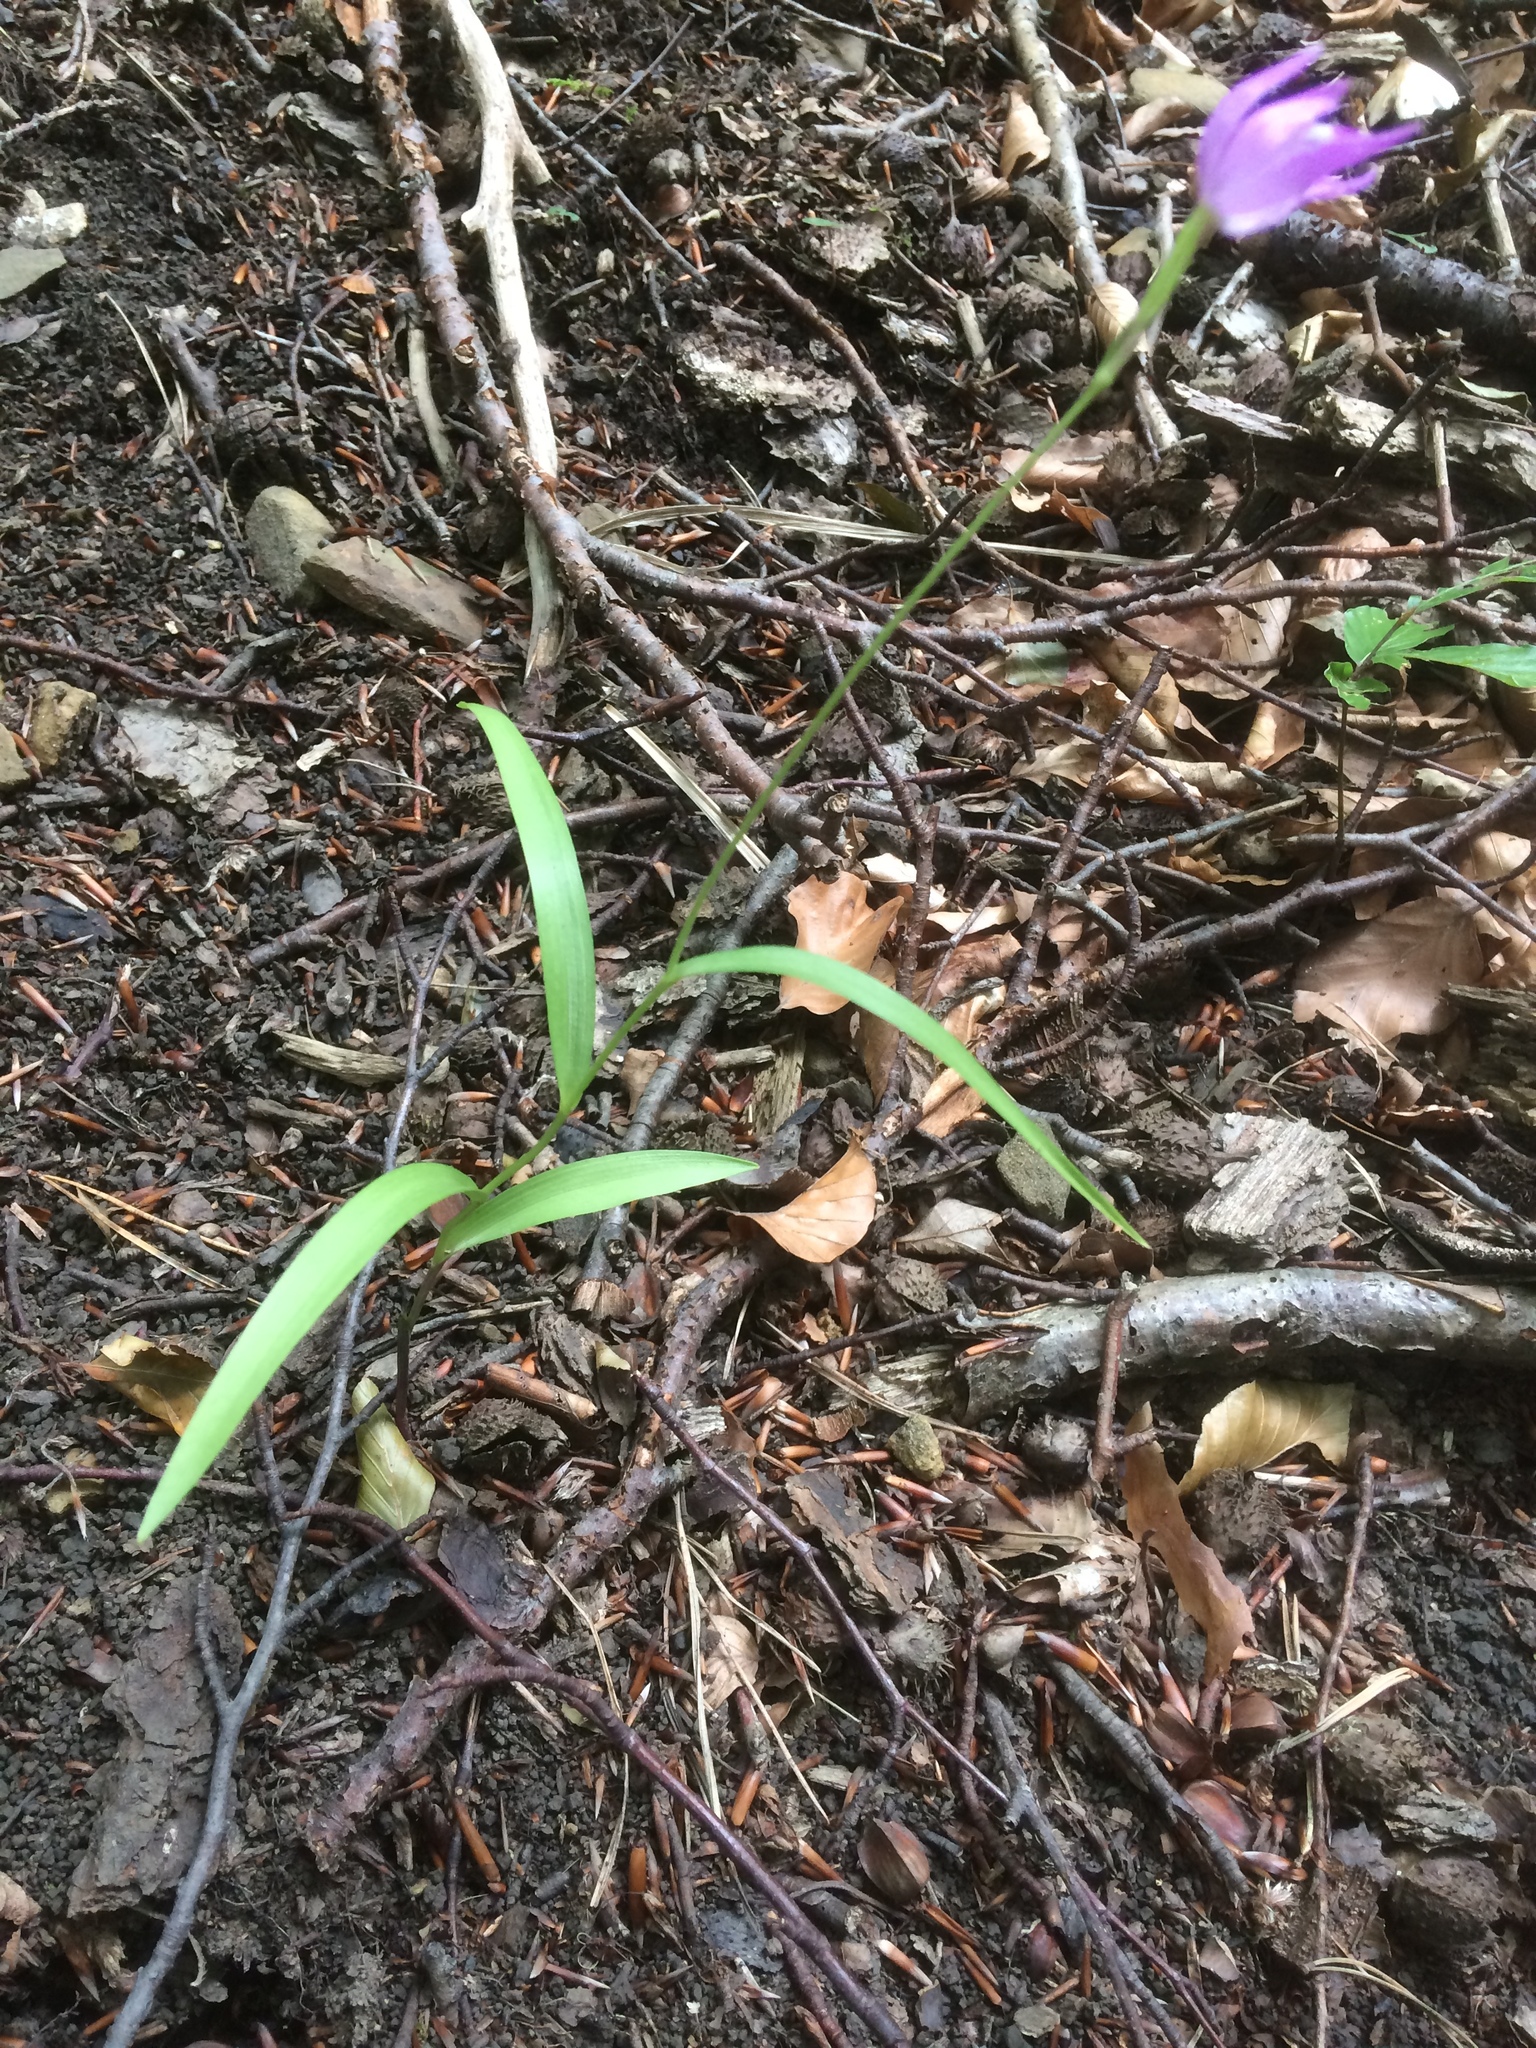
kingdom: Plantae
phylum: Tracheophyta
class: Liliopsida
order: Asparagales
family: Orchidaceae
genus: Cephalanthera
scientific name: Cephalanthera rubra
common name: Red helleborine
